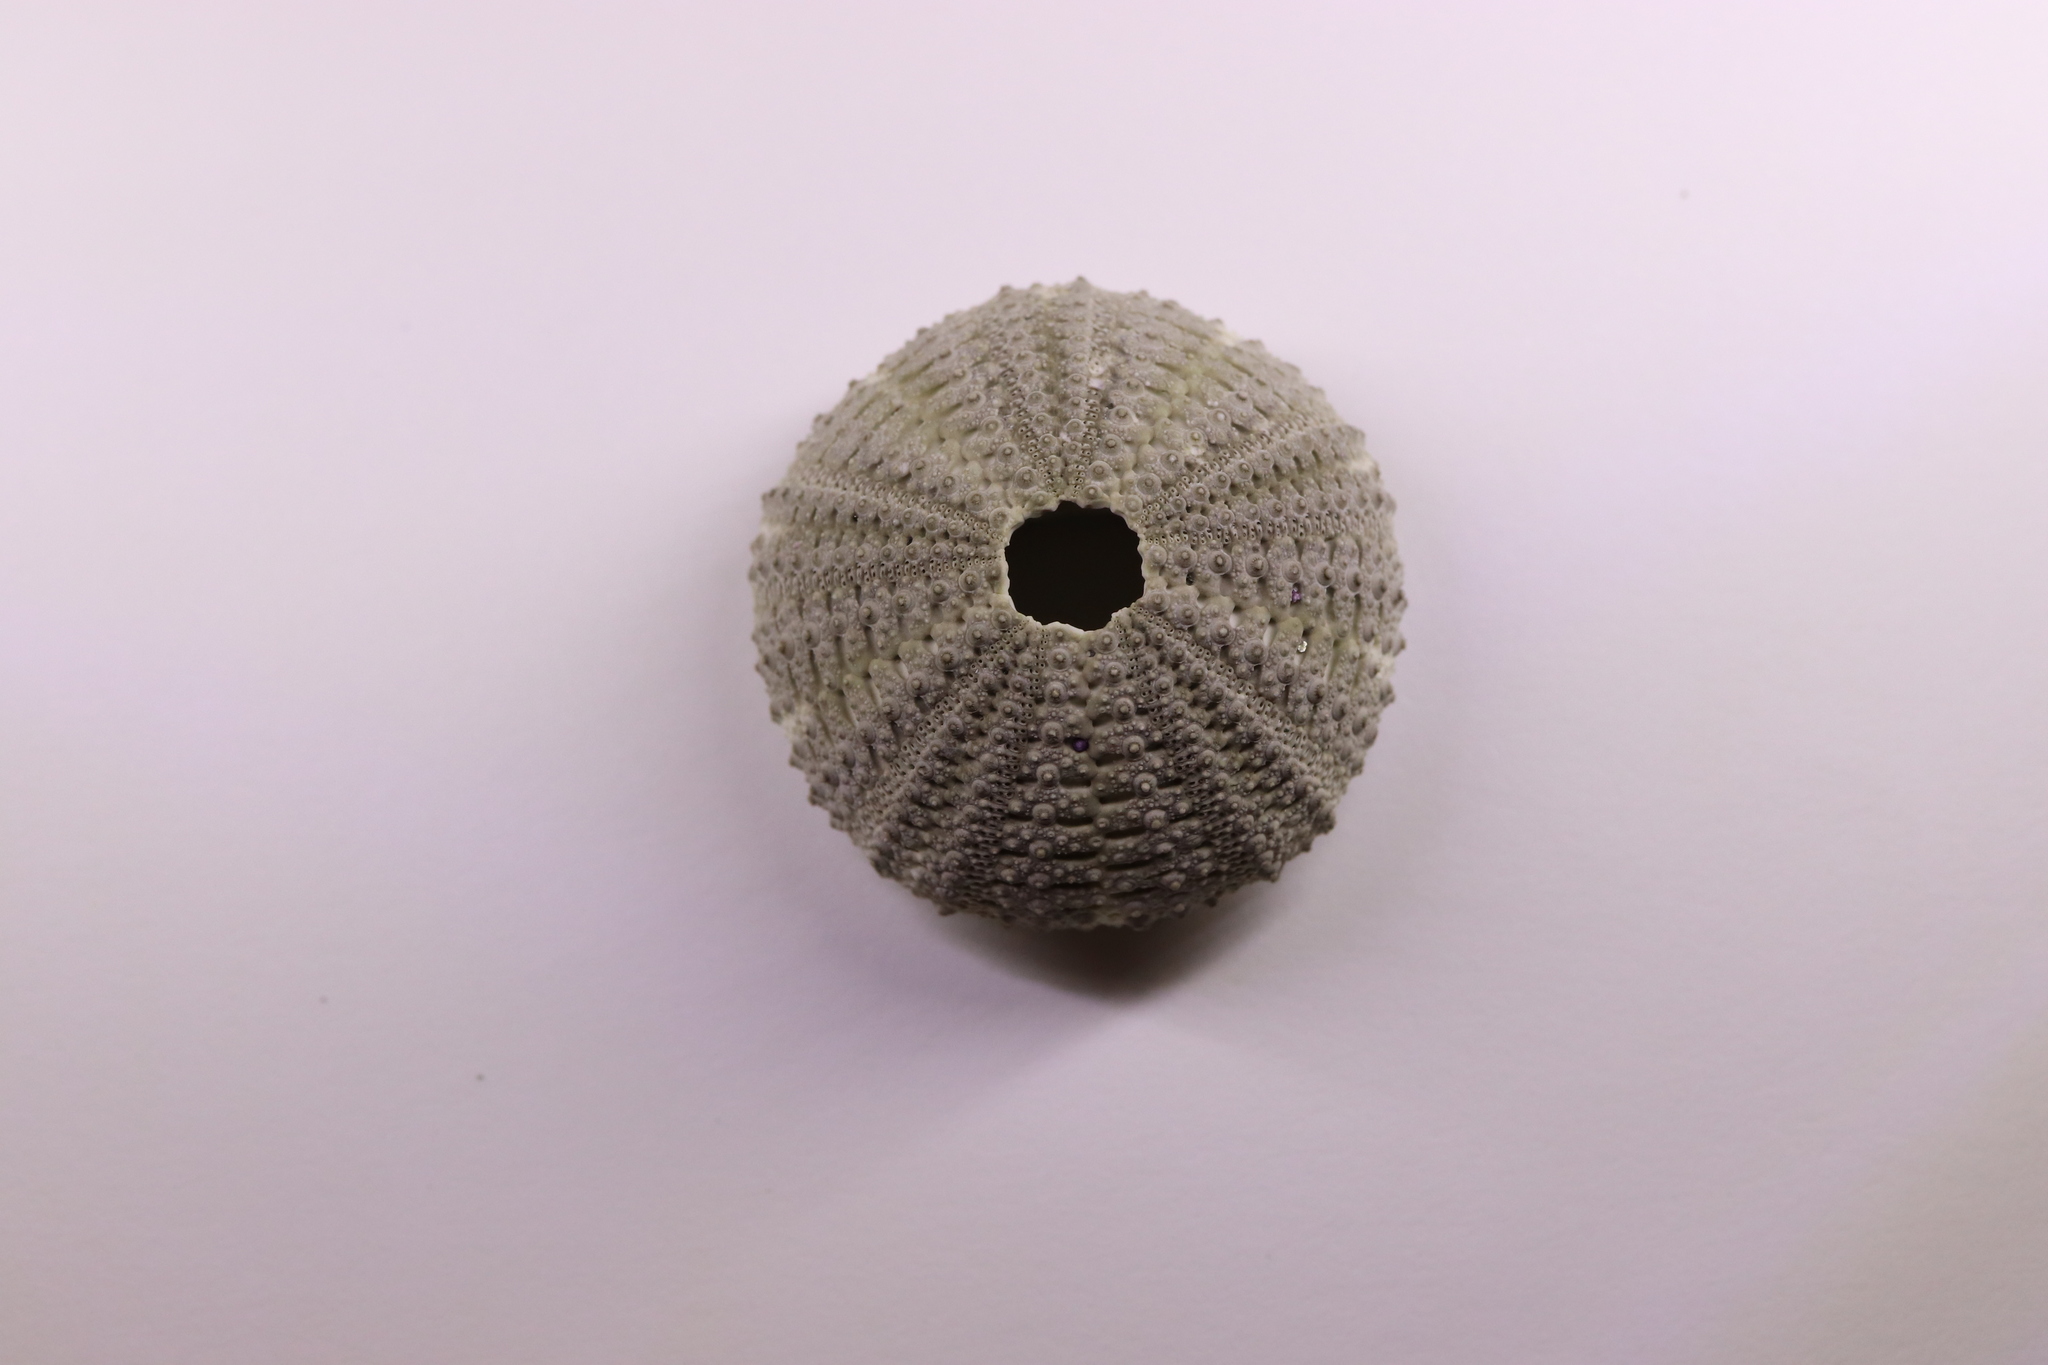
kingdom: Animalia
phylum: Echinodermata
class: Echinoidea
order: Camarodonta
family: Temnopleuridae
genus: Temnopleurus
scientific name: Temnopleurus toreumaticus
